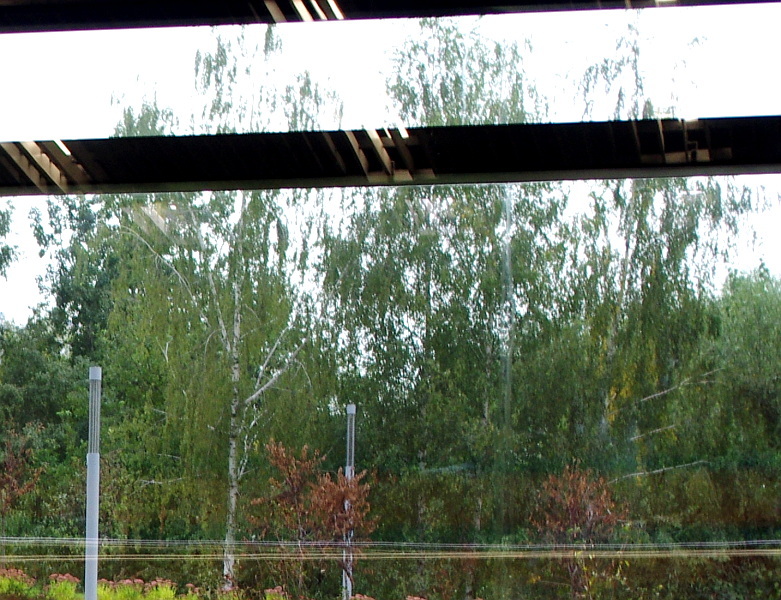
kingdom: Plantae
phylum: Tracheophyta
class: Magnoliopsida
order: Fagales
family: Betulaceae
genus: Betula
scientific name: Betula pendula
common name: Silver birch
